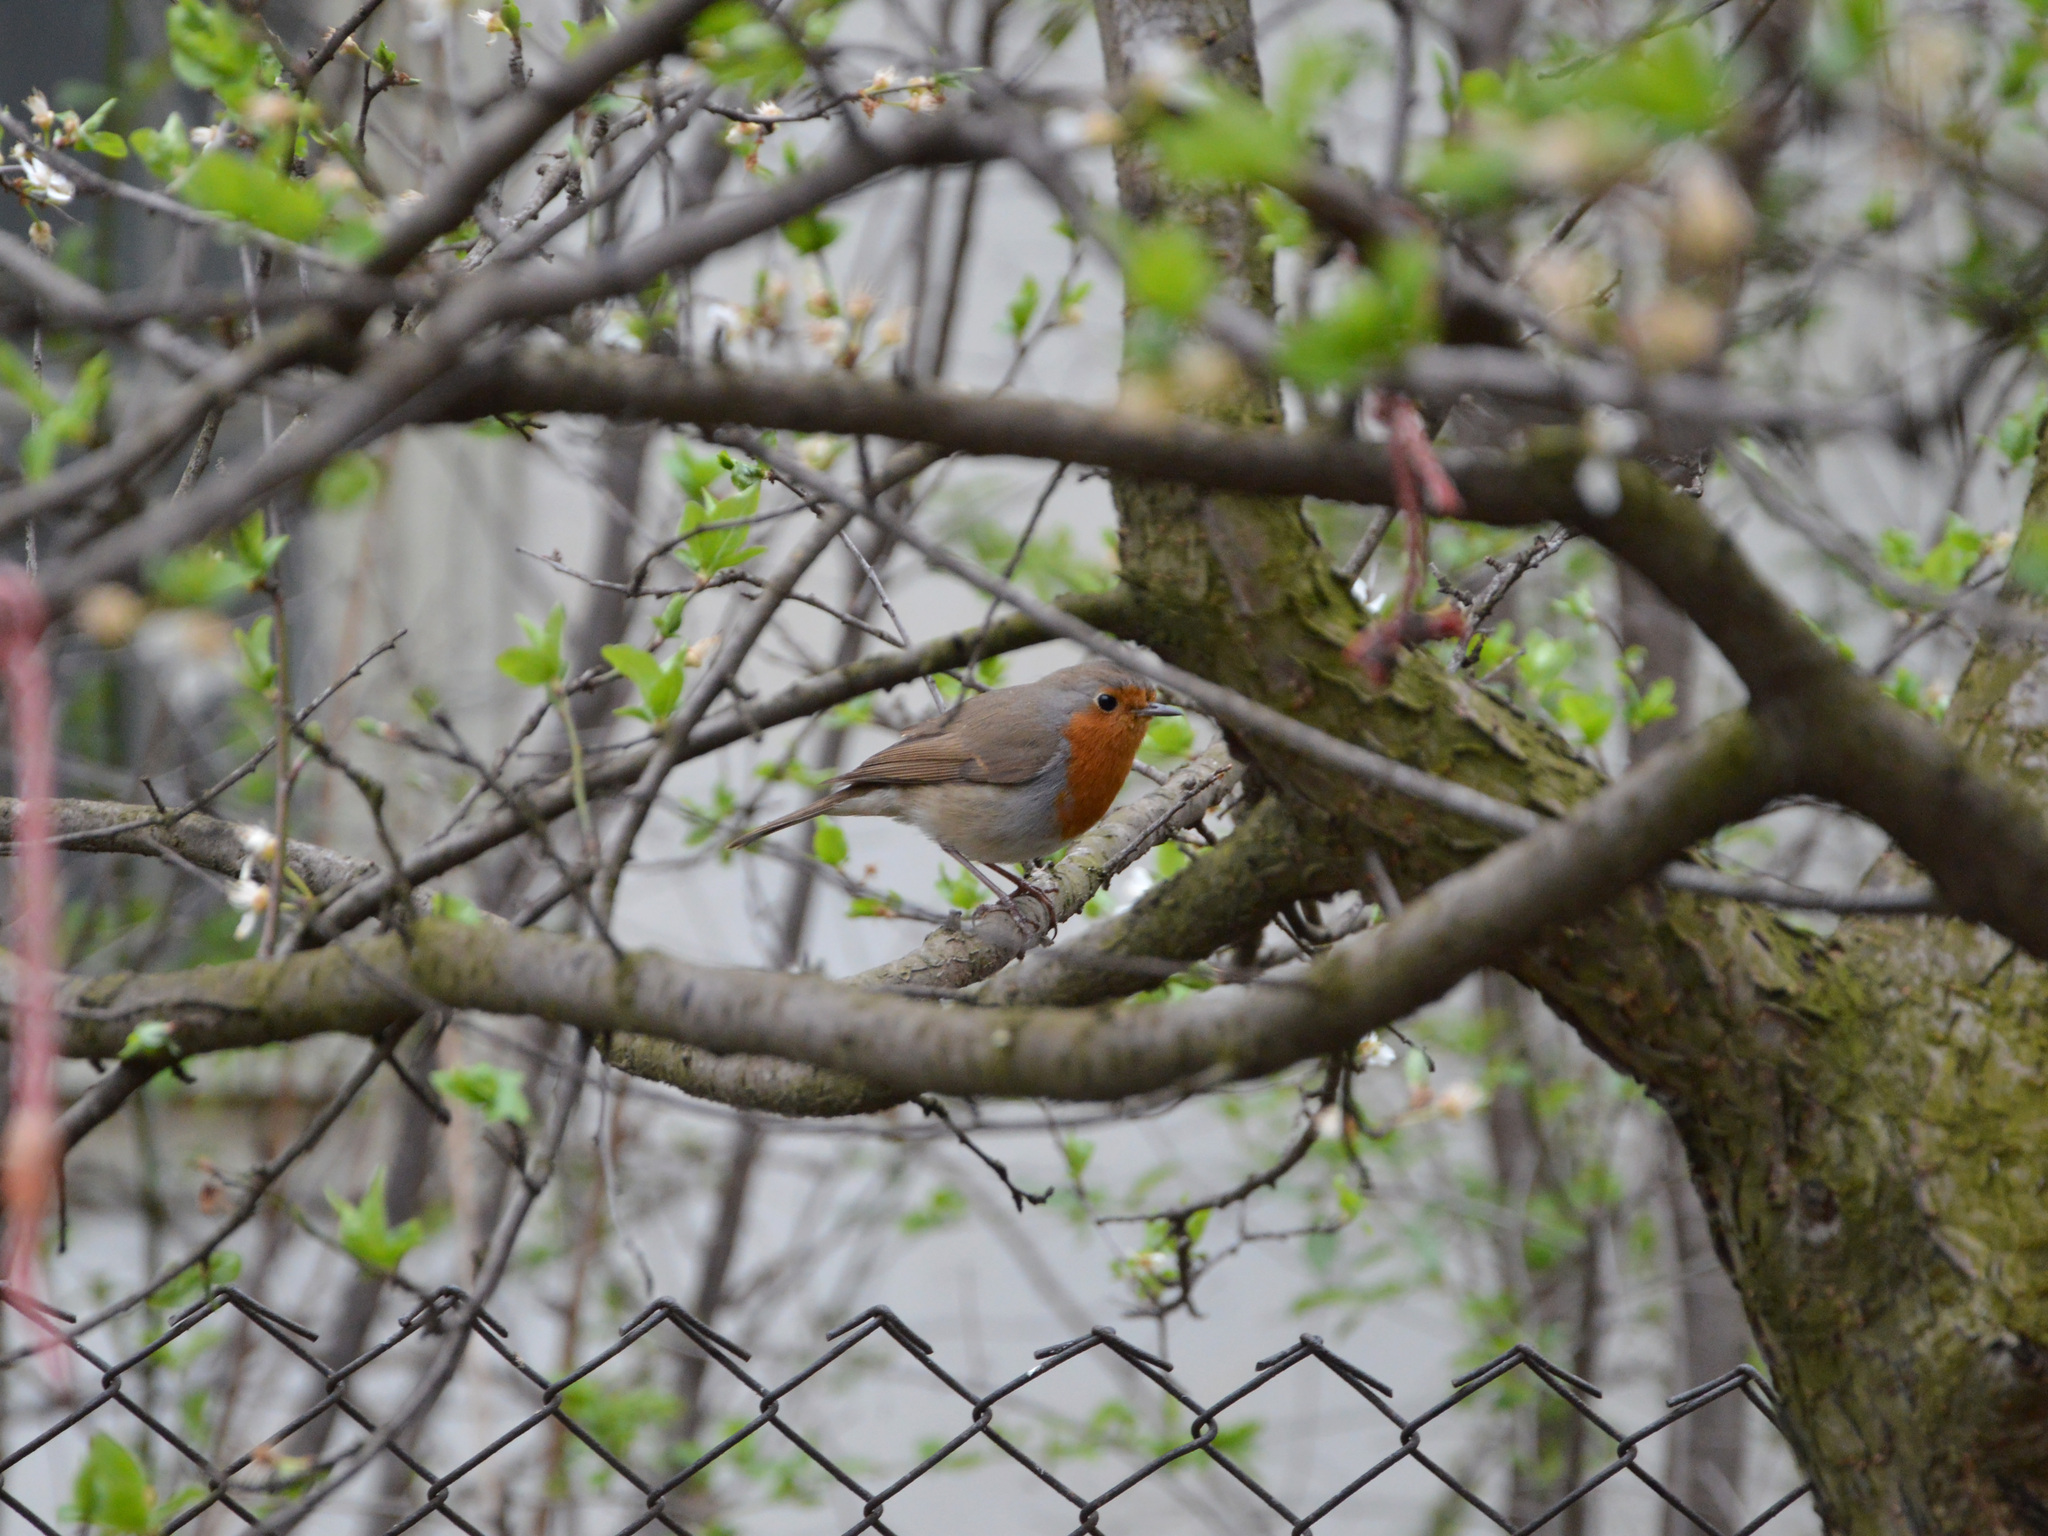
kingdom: Animalia
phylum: Chordata
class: Aves
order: Passeriformes
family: Muscicapidae
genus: Erithacus
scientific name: Erithacus rubecula
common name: European robin
